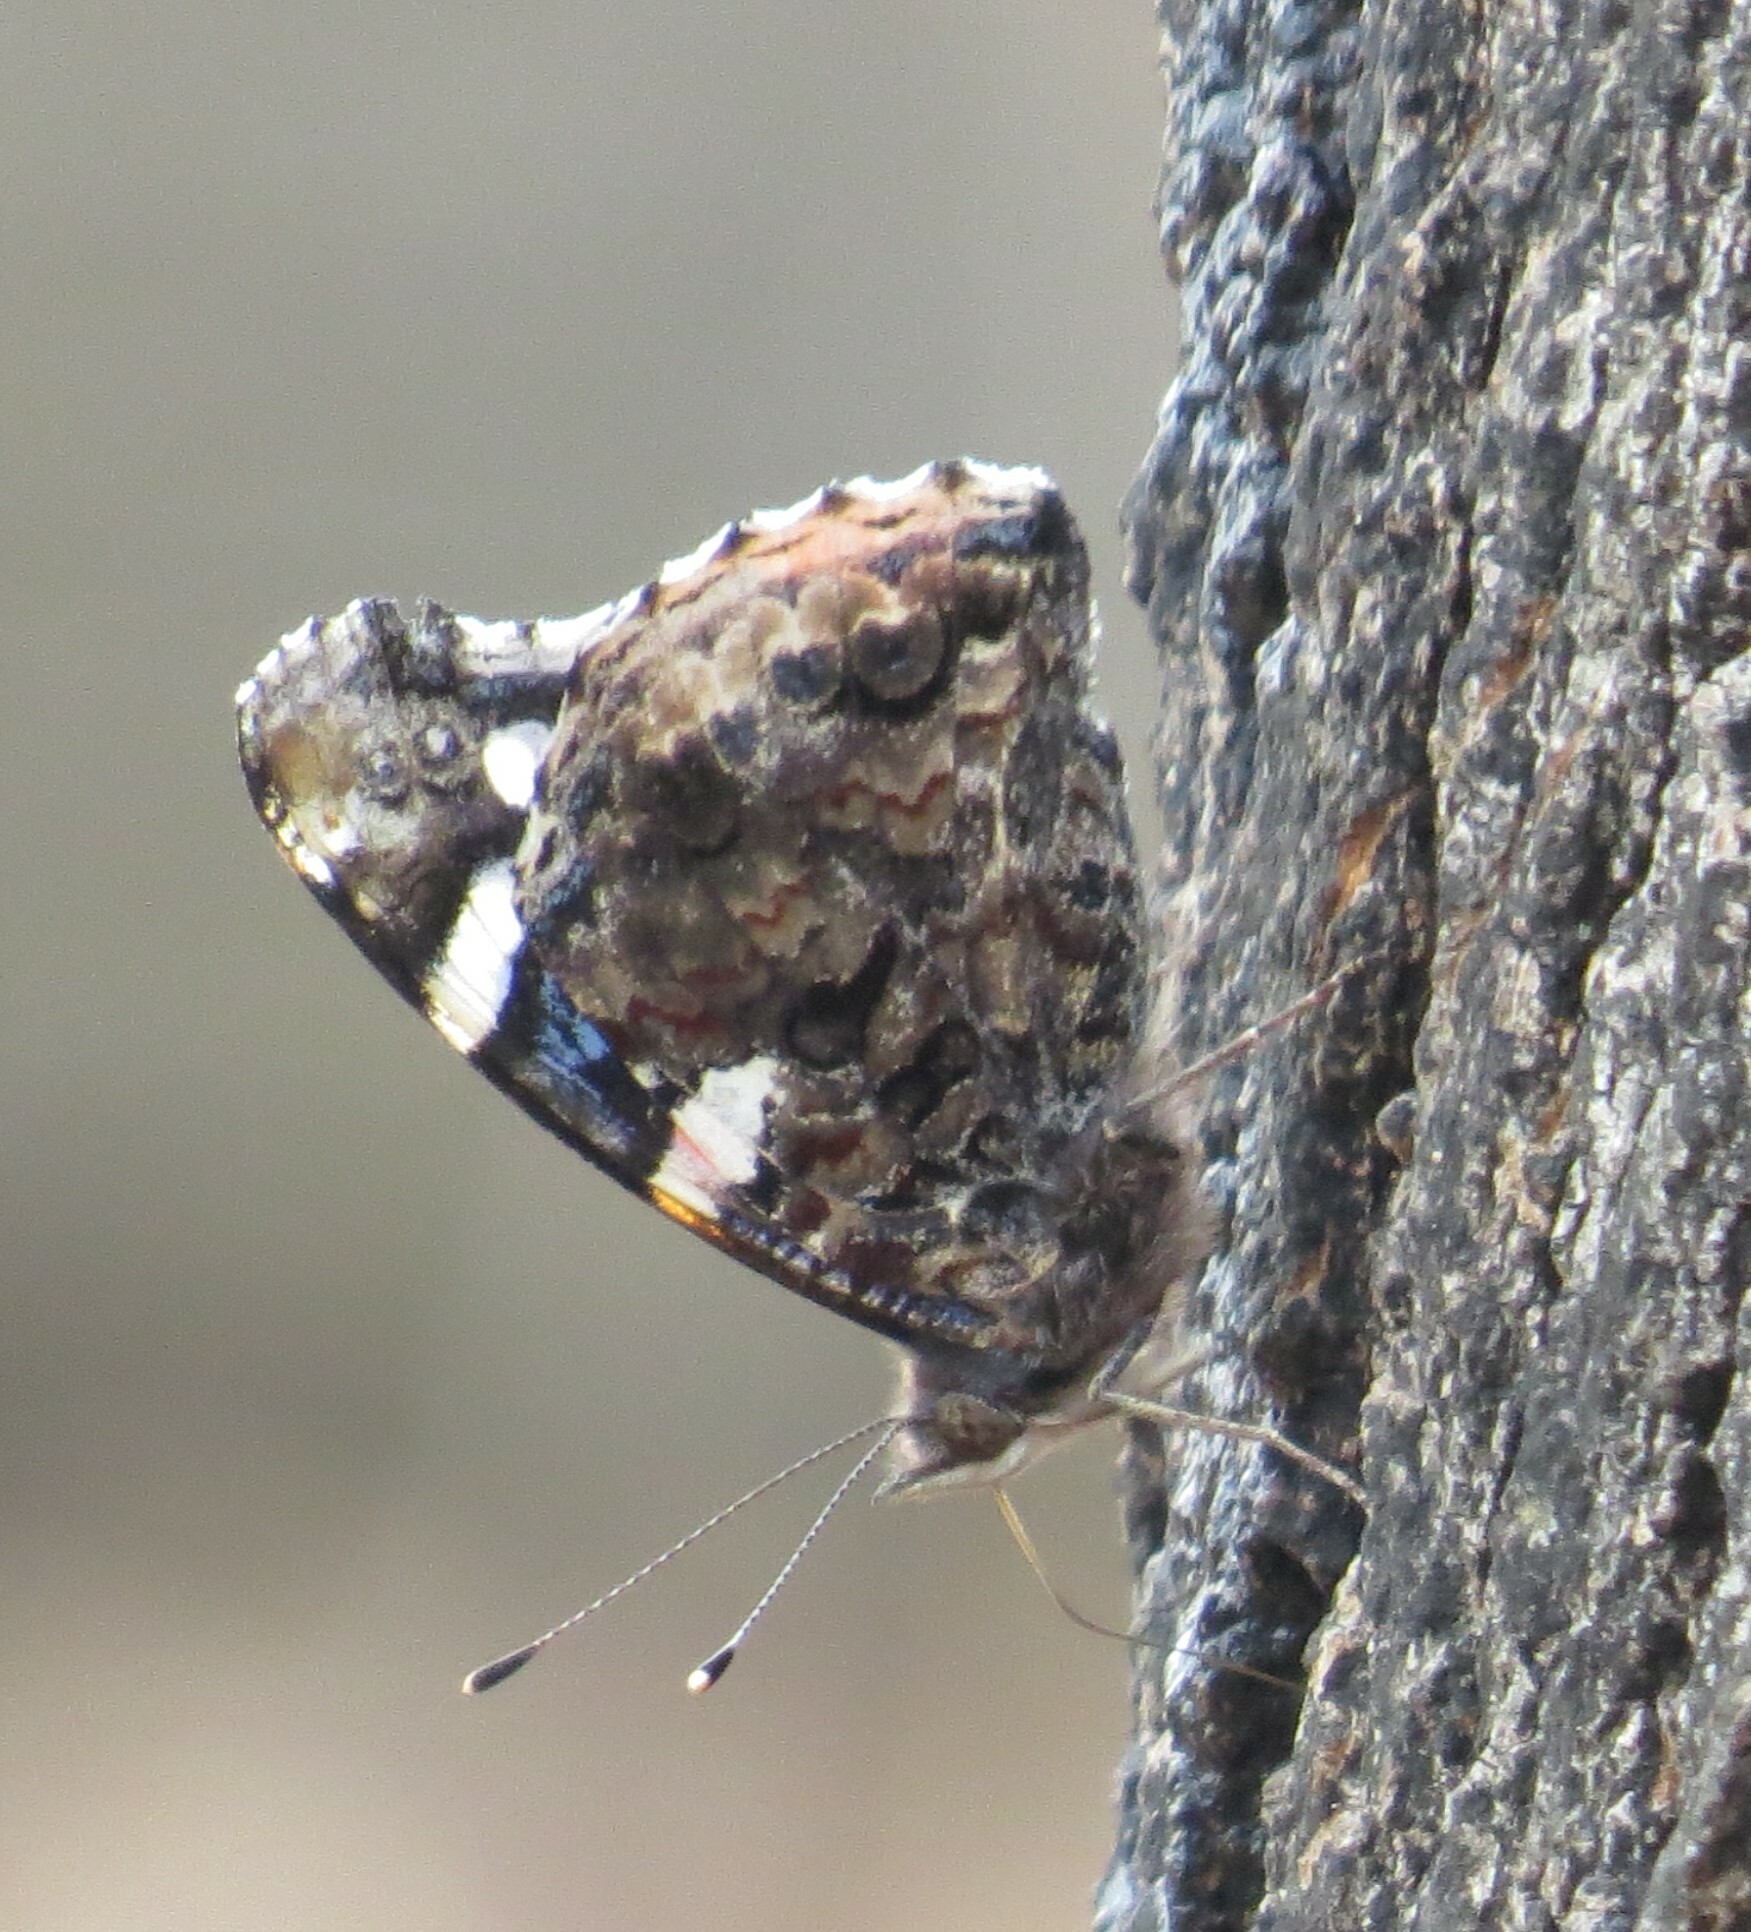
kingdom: Animalia
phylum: Arthropoda
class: Insecta
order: Lepidoptera
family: Nymphalidae
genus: Vanessa
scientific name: Vanessa atalanta
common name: Red admiral
